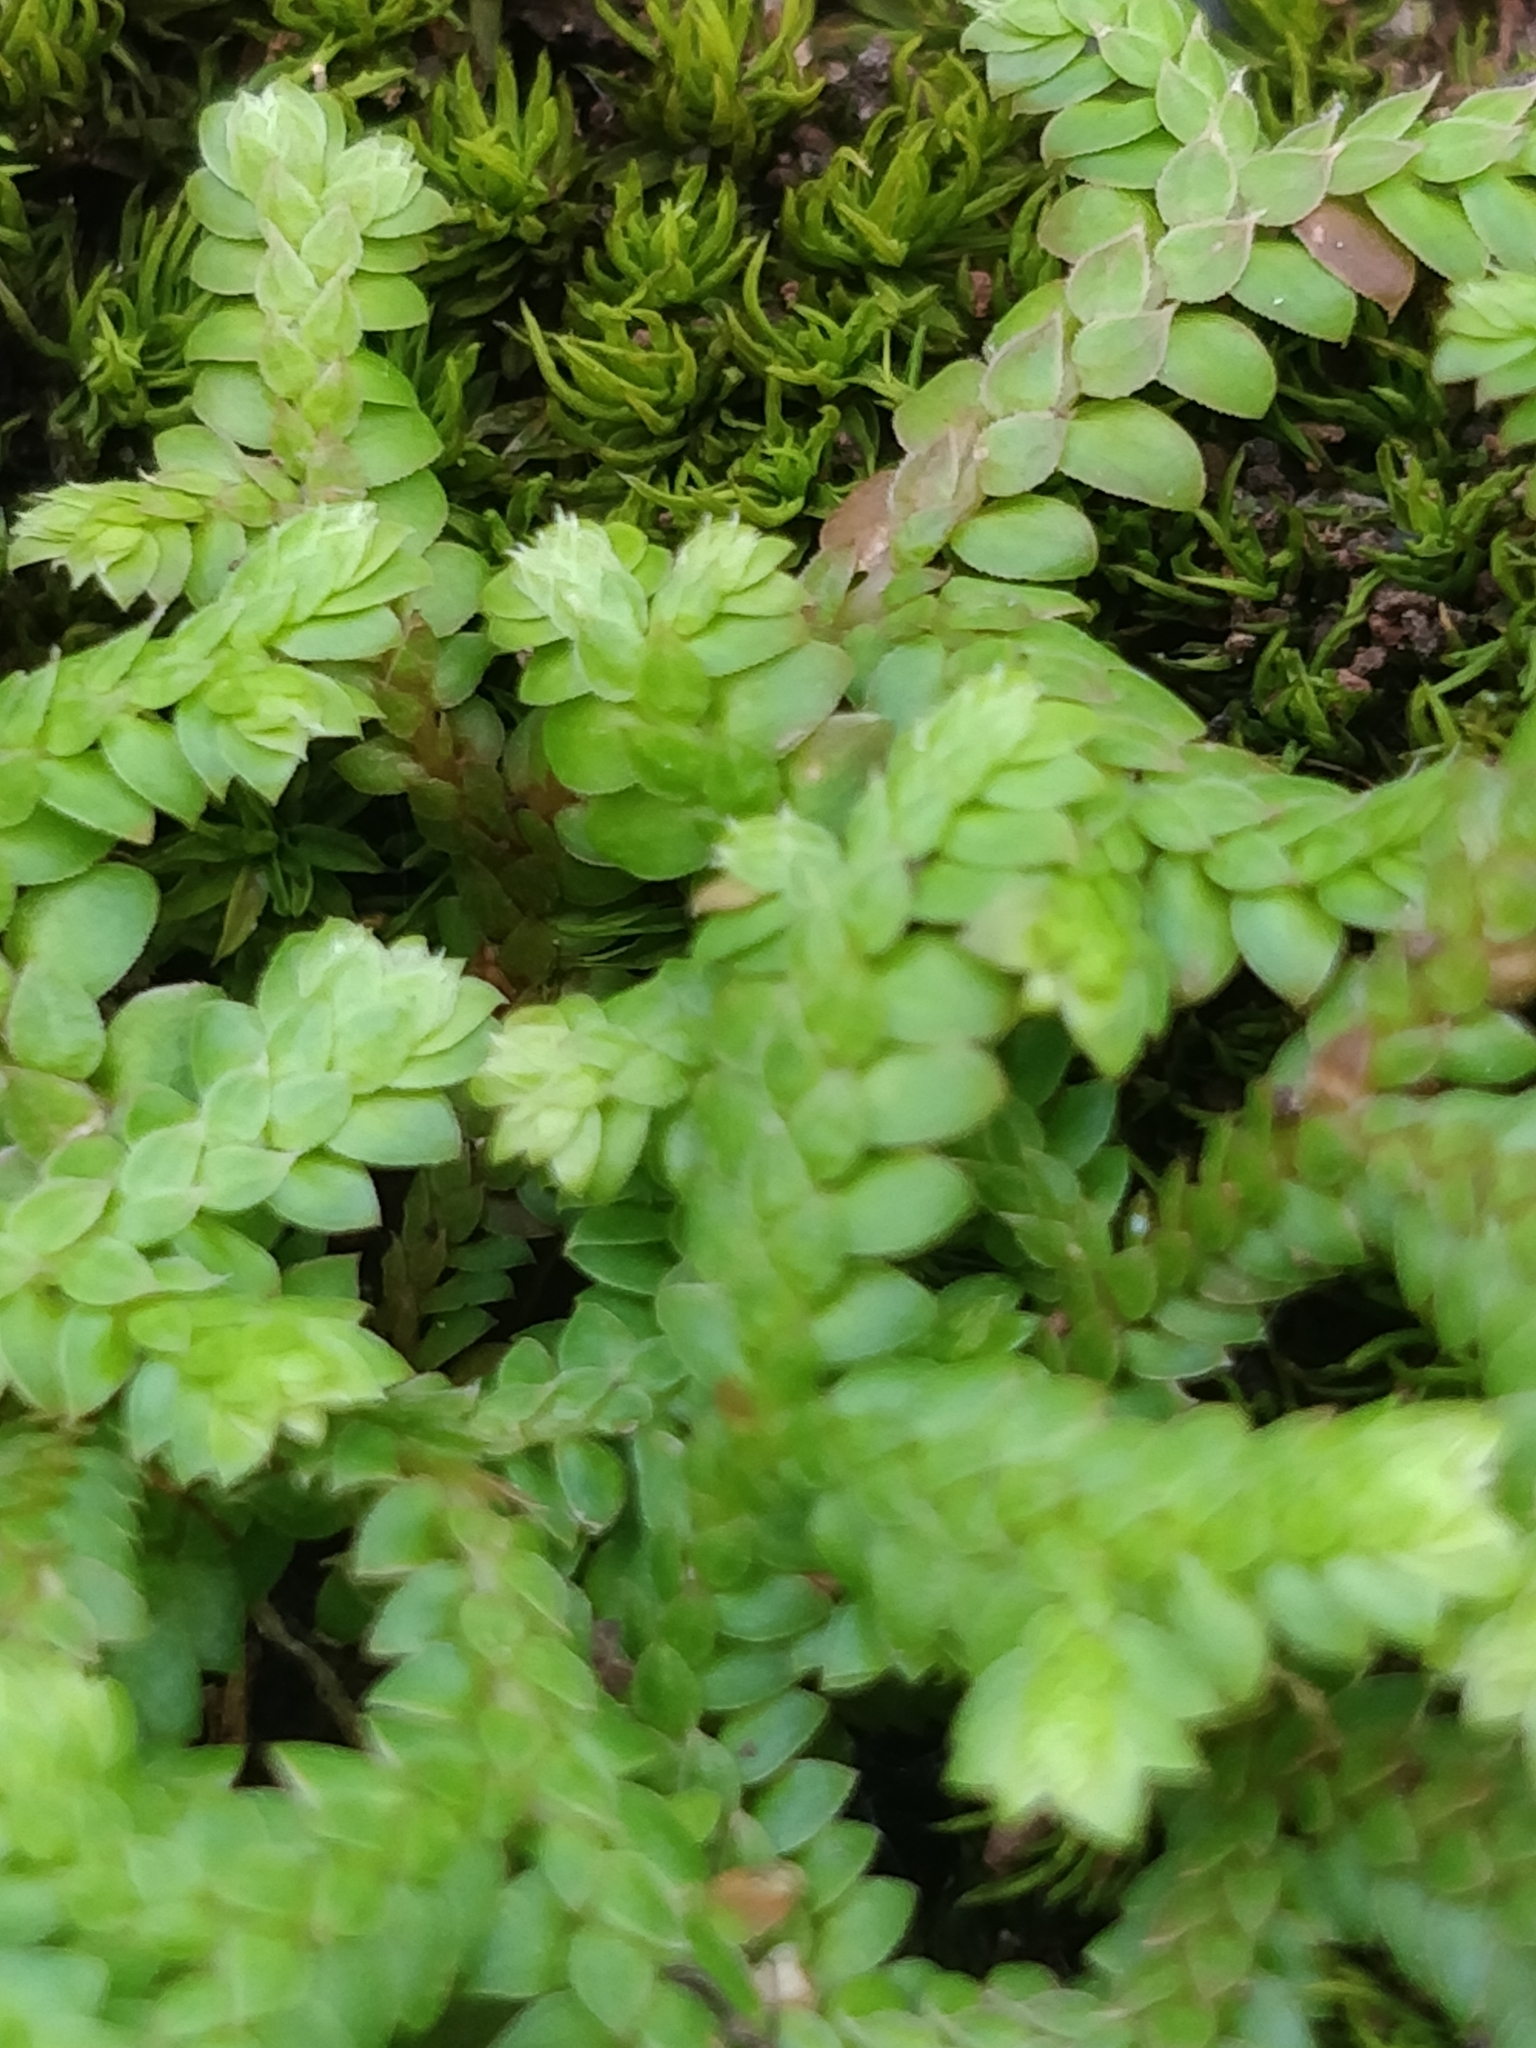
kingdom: Plantae
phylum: Tracheophyta
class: Lycopodiopsida
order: Selaginellales
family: Selaginellaceae
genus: Selaginella
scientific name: Selaginella denticulata
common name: Toothed-leaved clubmoss
